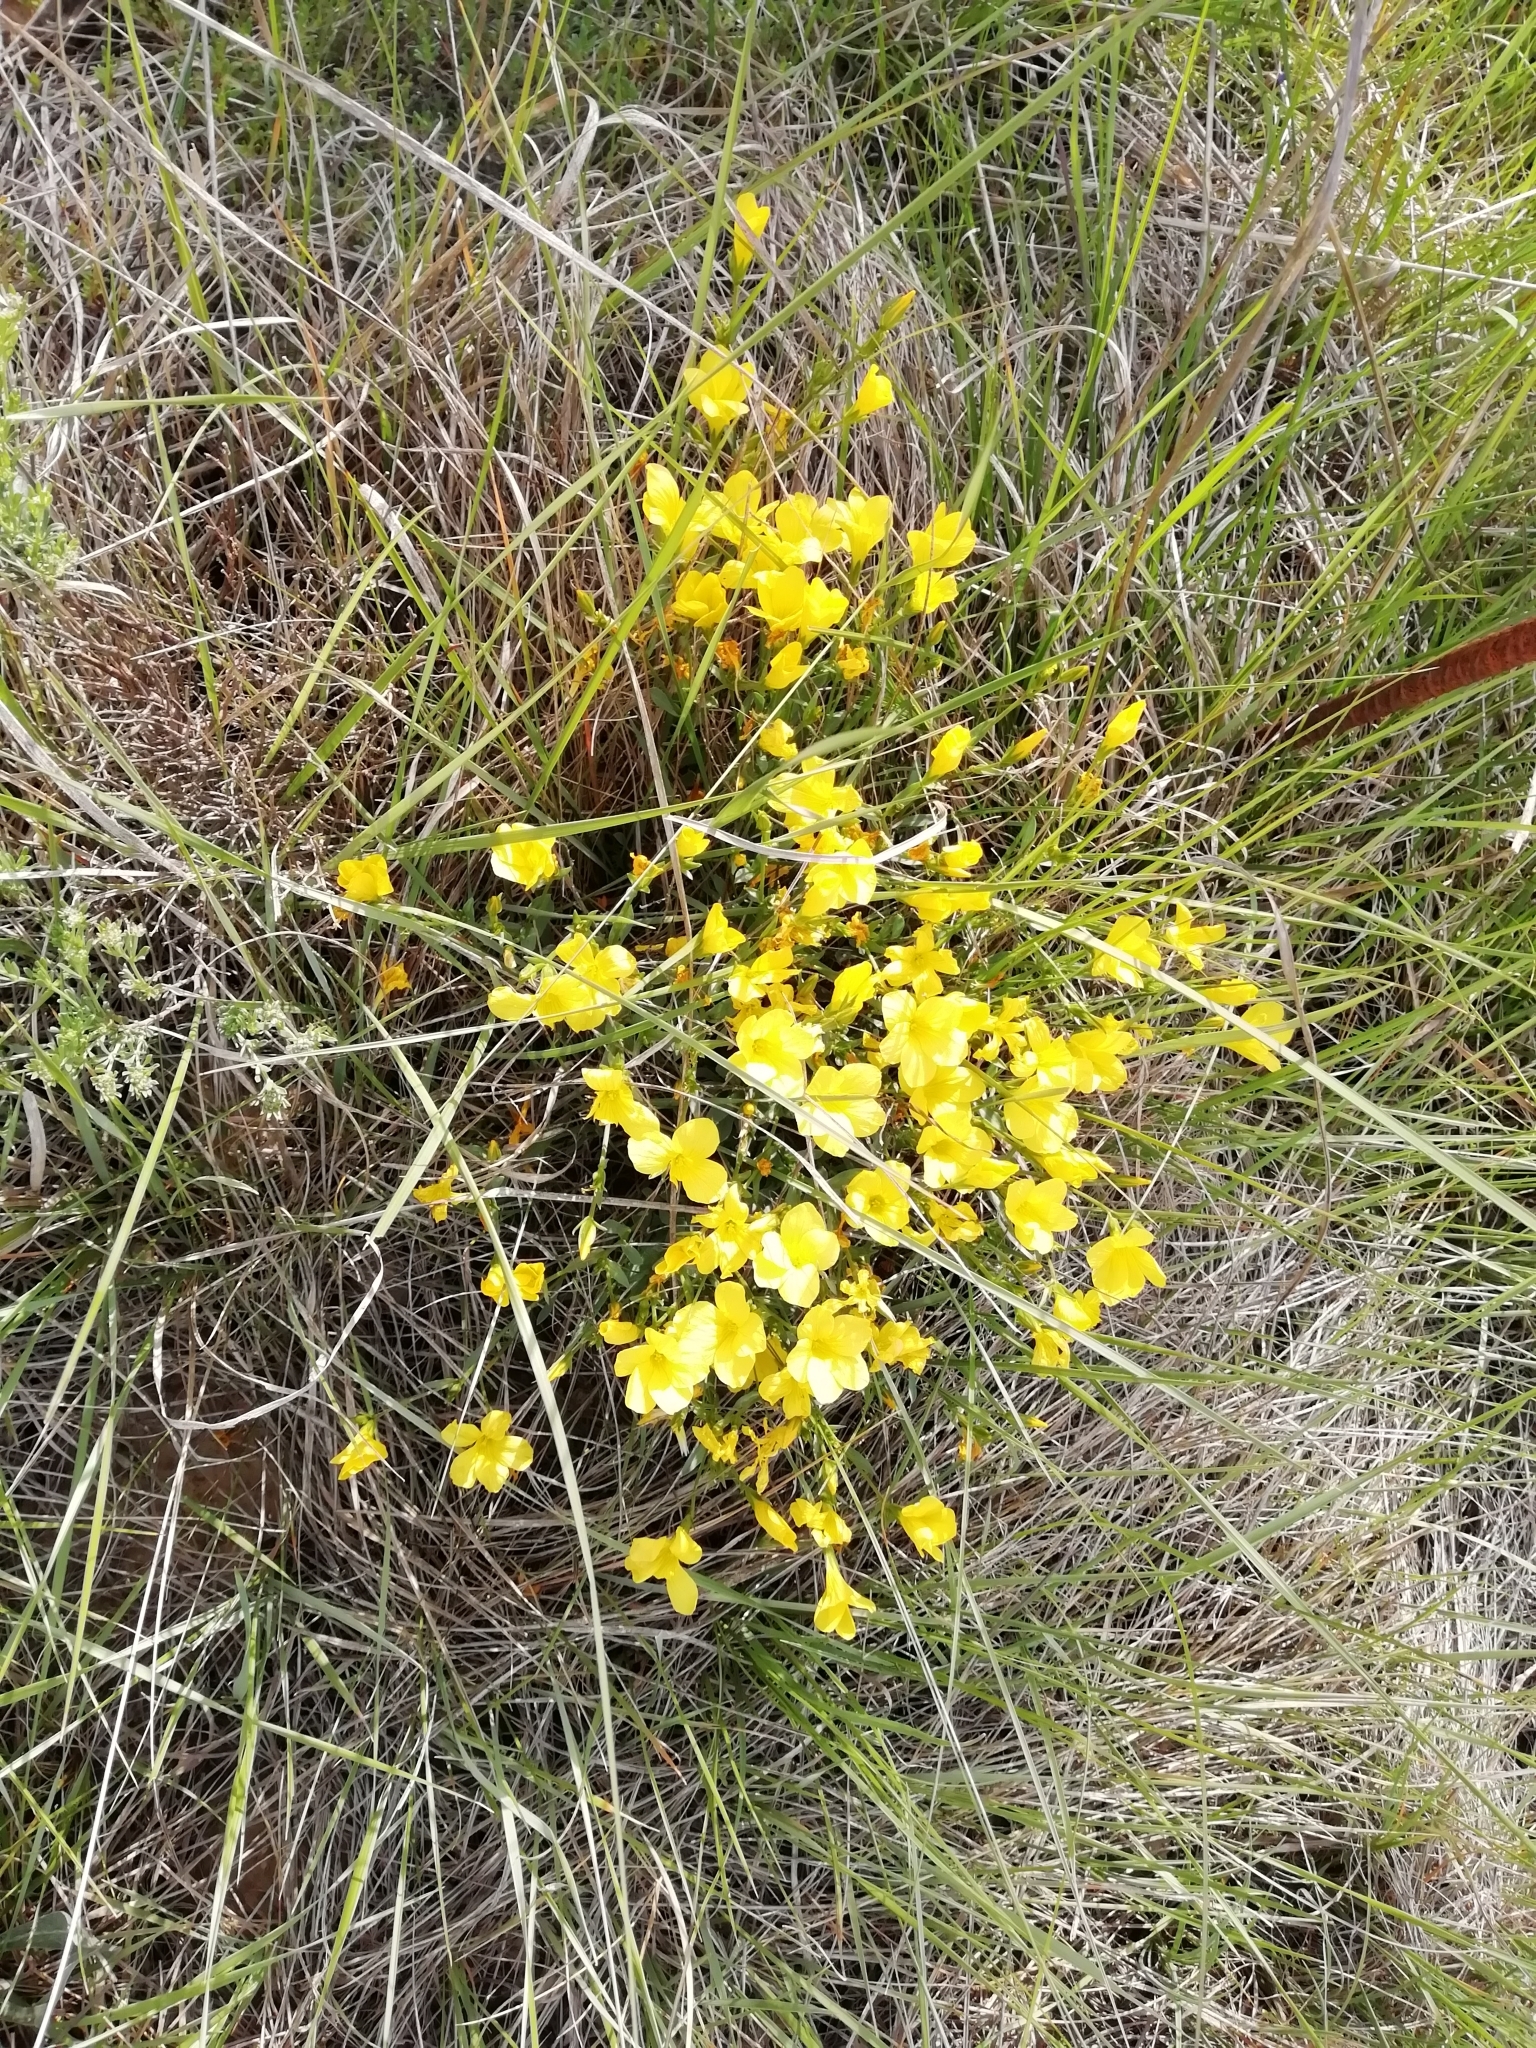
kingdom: Plantae
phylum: Tracheophyta
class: Magnoliopsida
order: Malpighiales
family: Linaceae
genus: Linum
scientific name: Linum campanulatum
